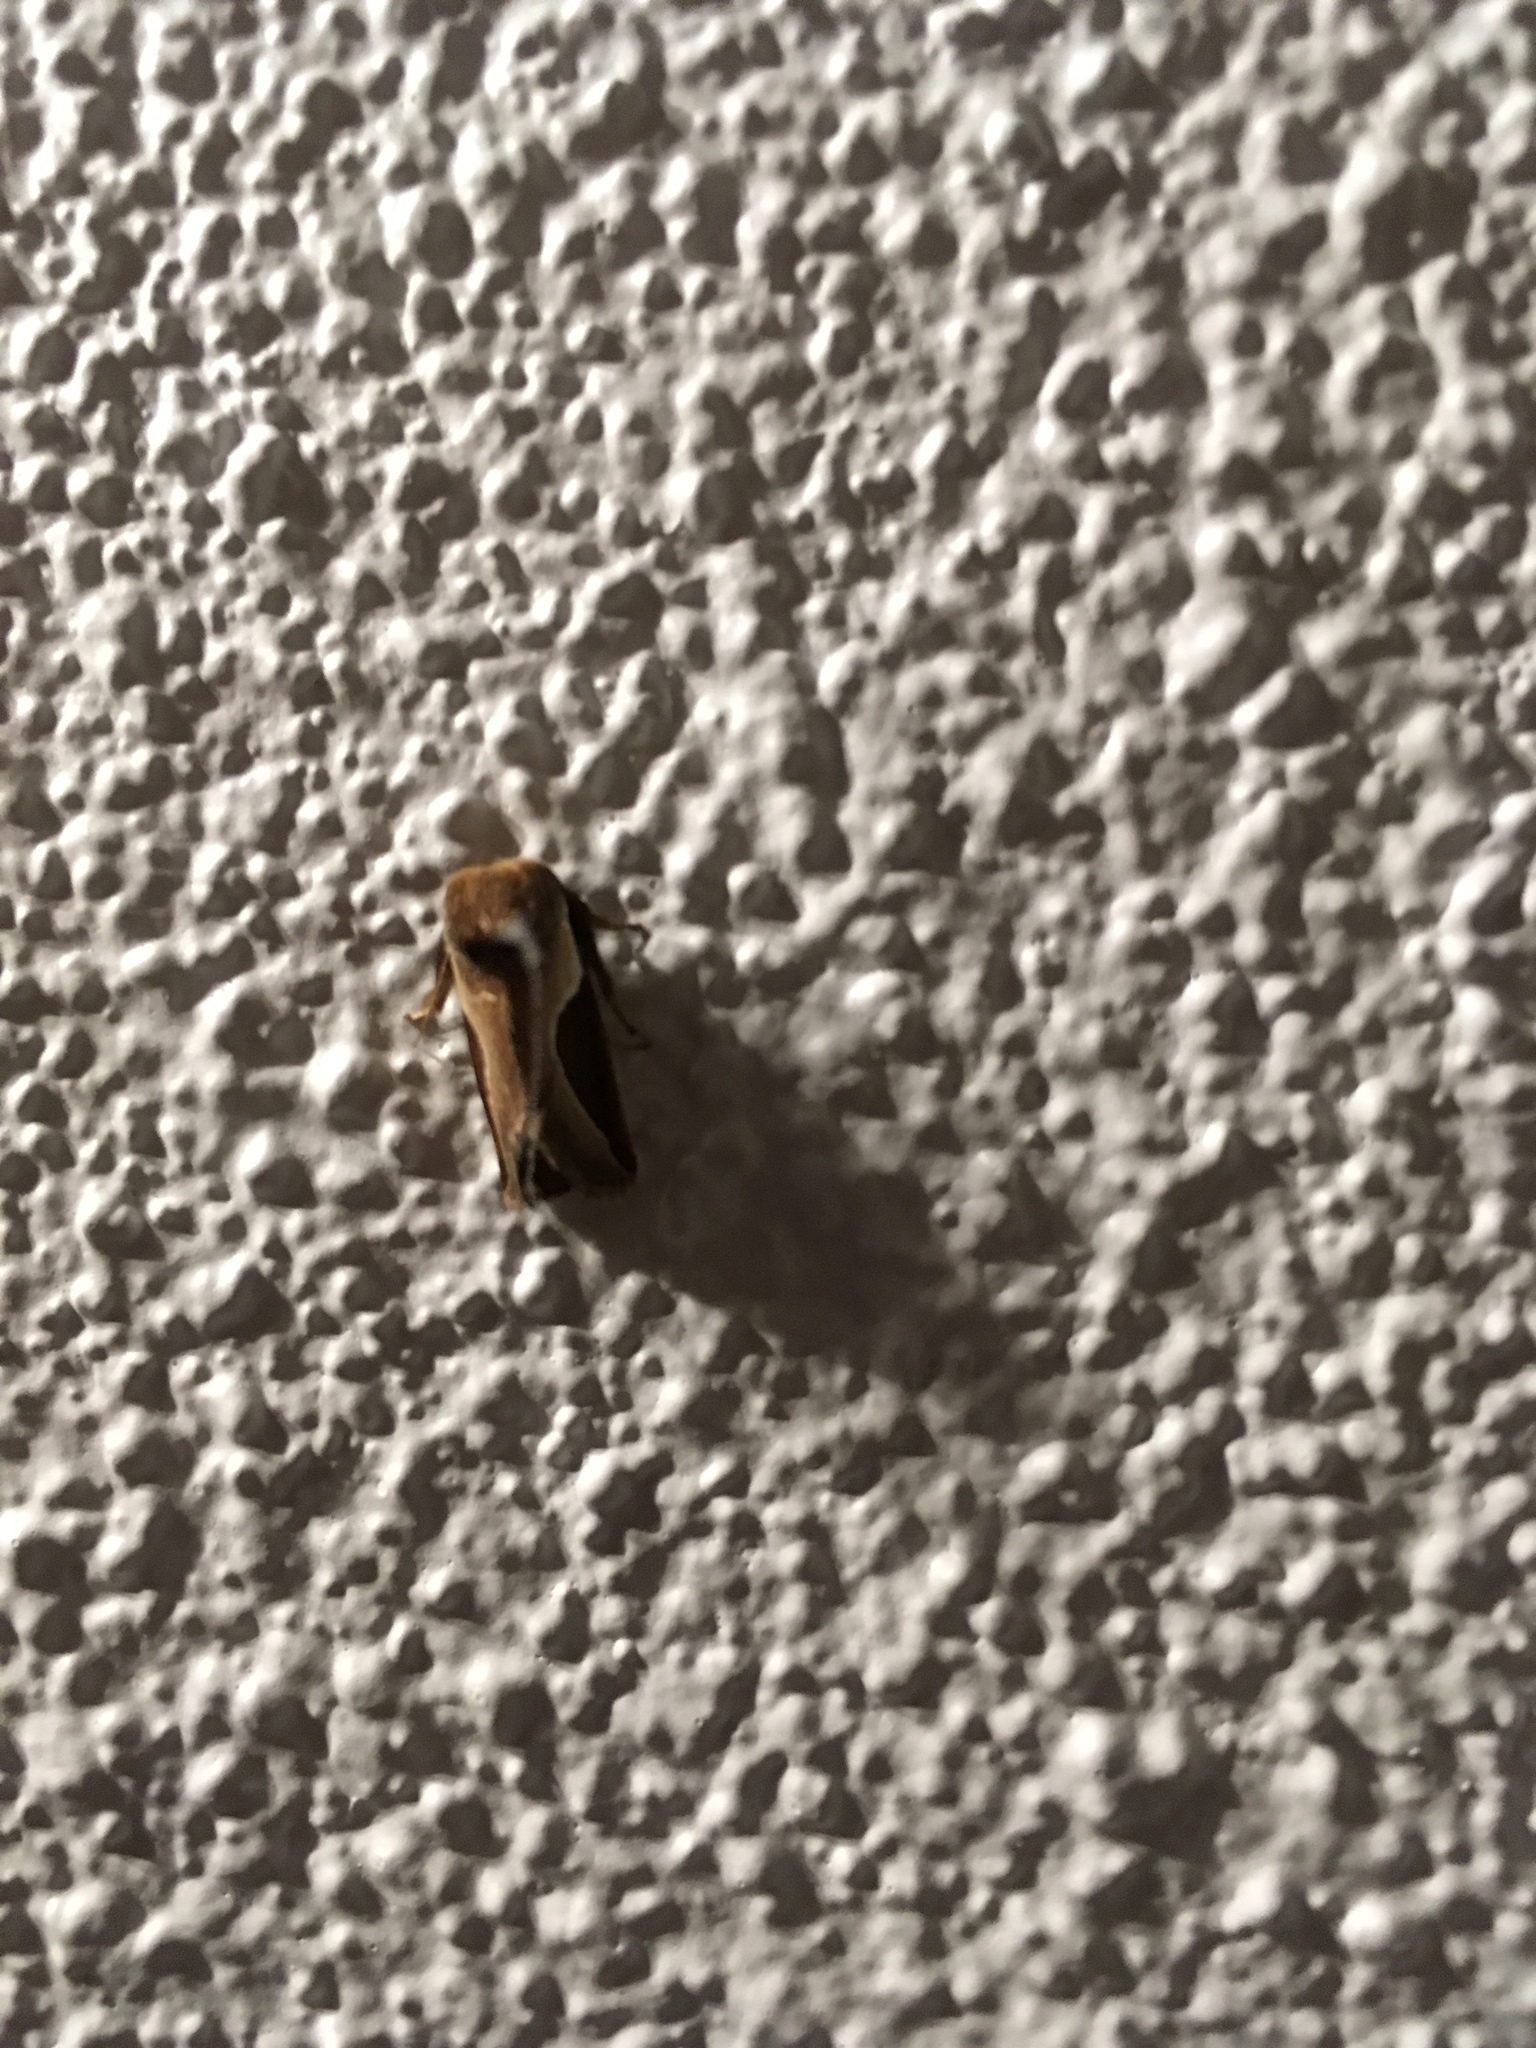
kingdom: Animalia
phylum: Arthropoda
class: Insecta
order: Lepidoptera
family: Limacodidae
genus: Prolimacodes
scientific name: Prolimacodes badia
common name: Skiff moth
